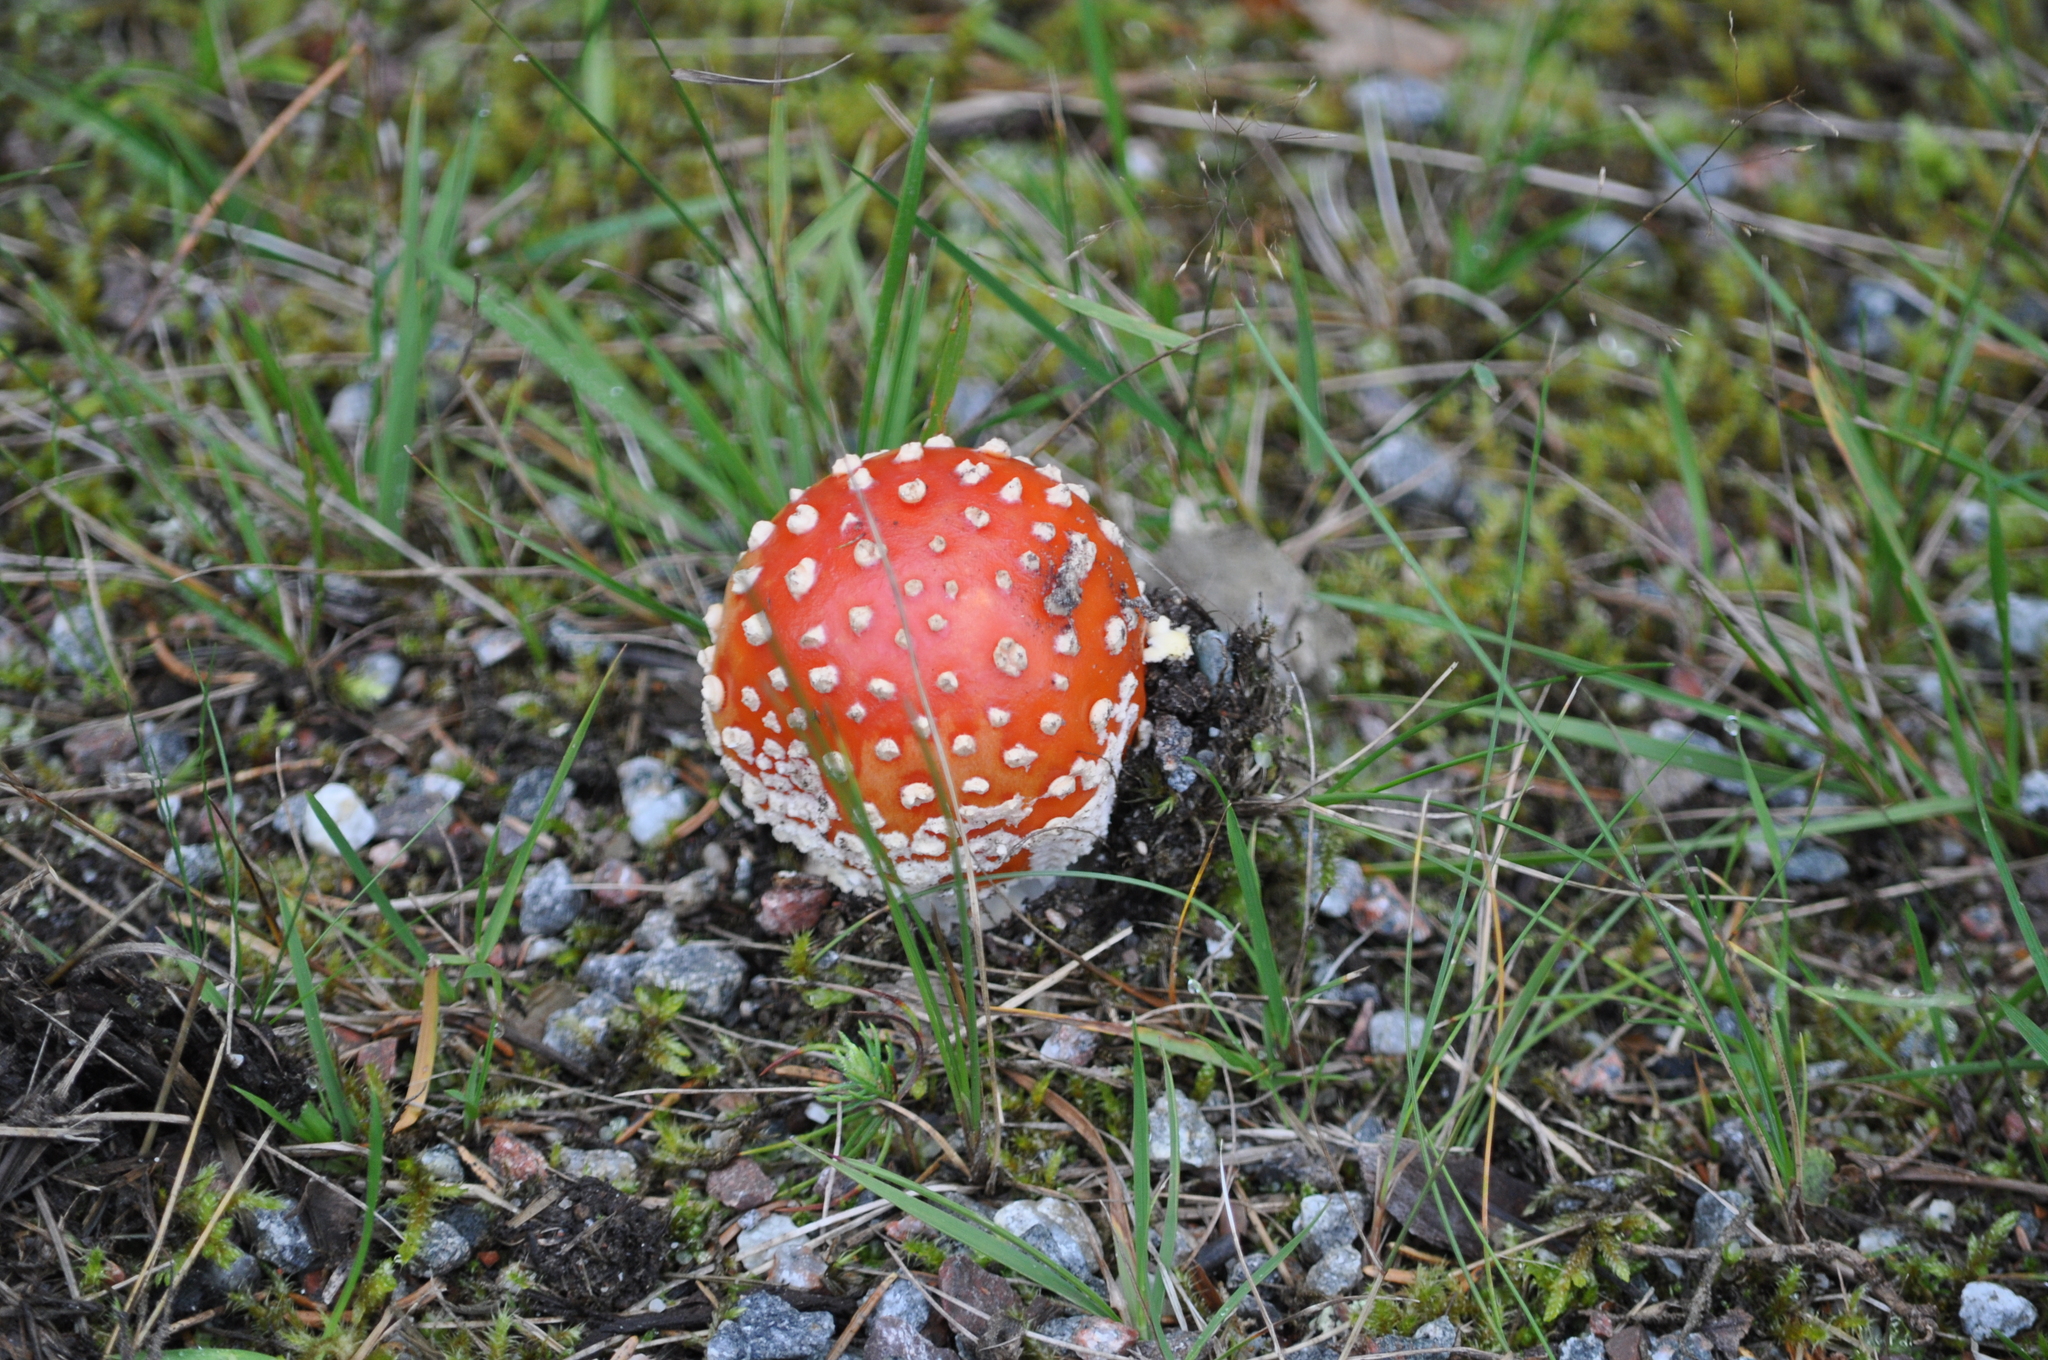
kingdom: Fungi
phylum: Basidiomycota
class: Agaricomycetes
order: Agaricales
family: Amanitaceae
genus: Amanita
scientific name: Amanita muscaria
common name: Fly agaric
